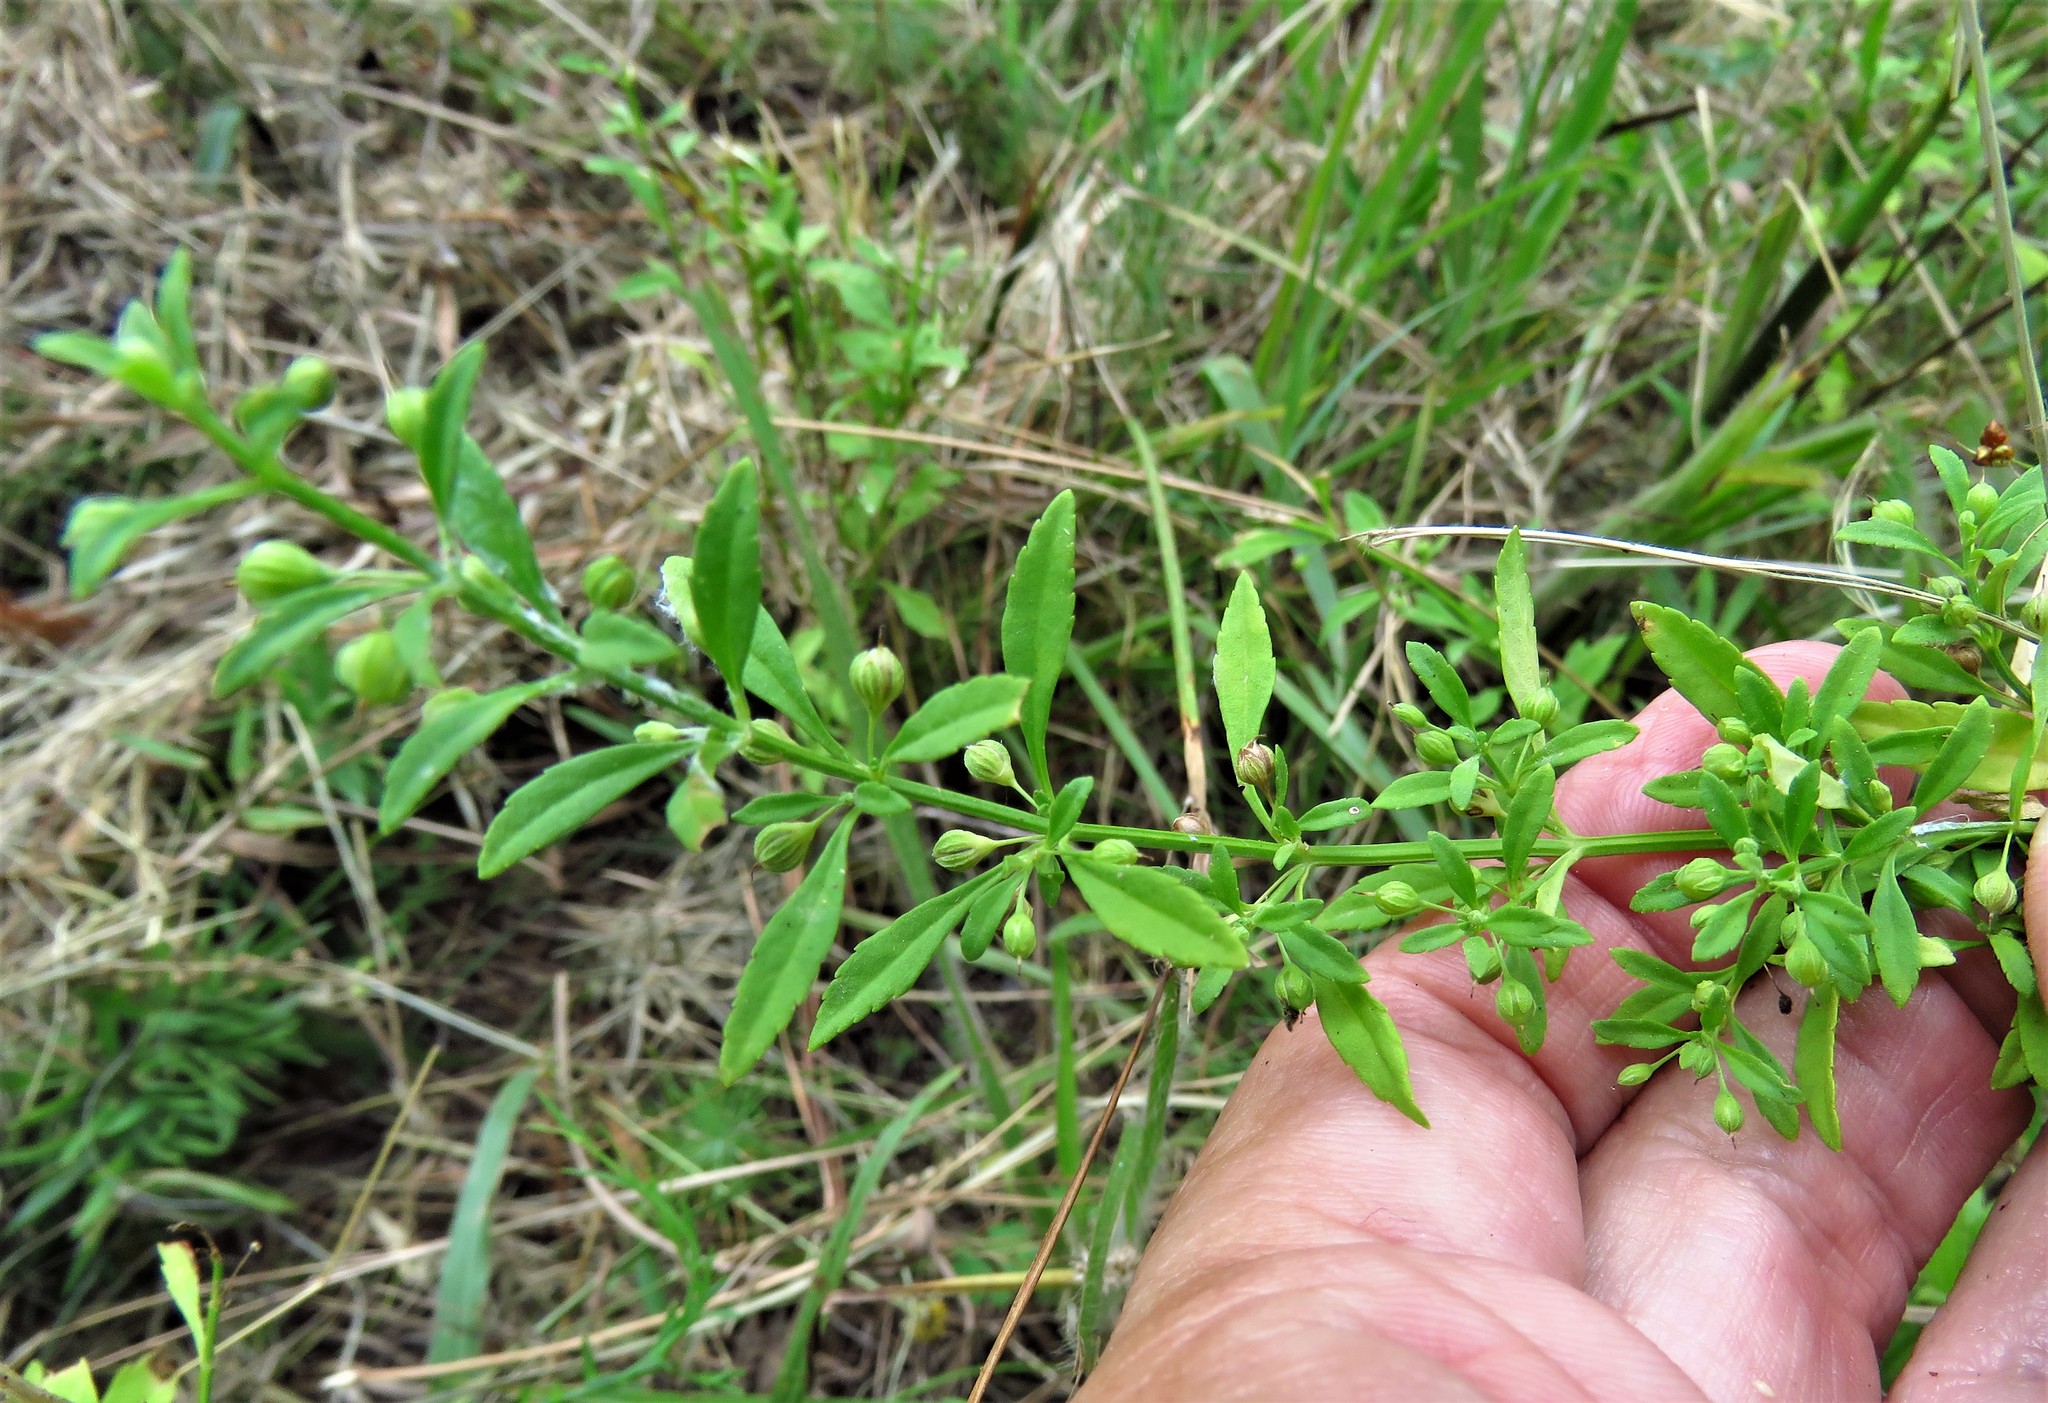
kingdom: Plantae
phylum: Tracheophyta
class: Magnoliopsida
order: Lamiales
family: Plantaginaceae
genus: Scoparia
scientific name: Scoparia dulcis
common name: Scoparia-weed
